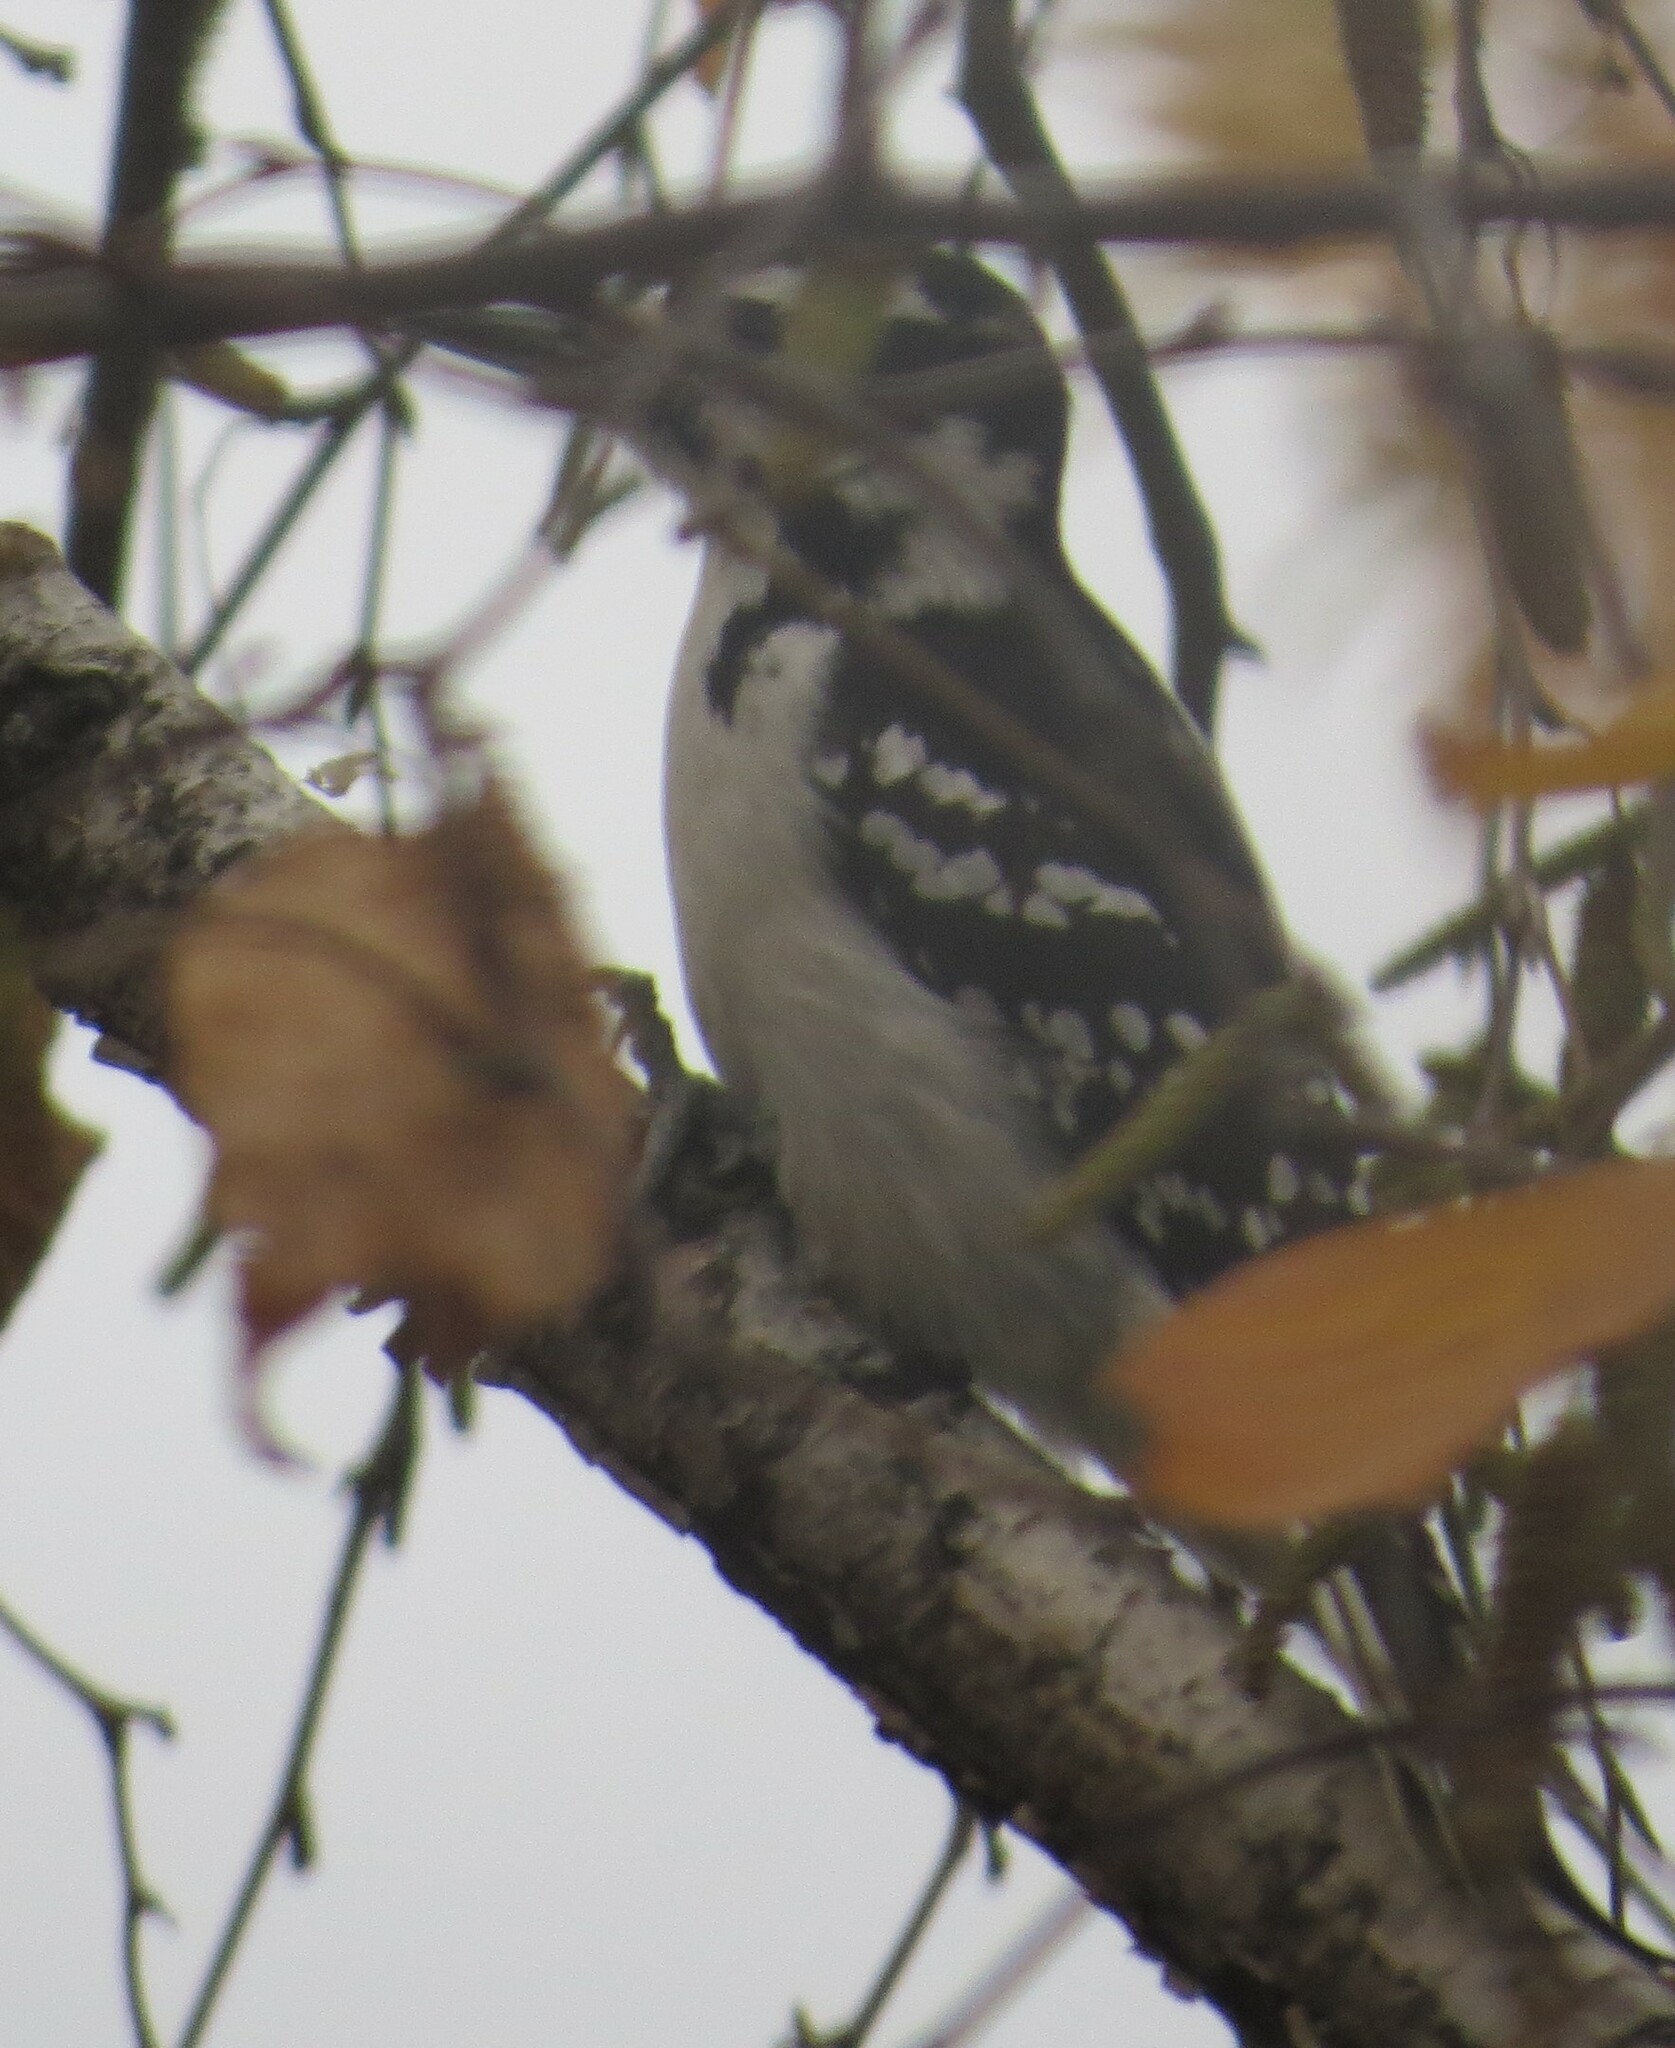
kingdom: Animalia
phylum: Chordata
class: Aves
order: Piciformes
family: Picidae
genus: Leuconotopicus
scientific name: Leuconotopicus villosus
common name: Hairy woodpecker
